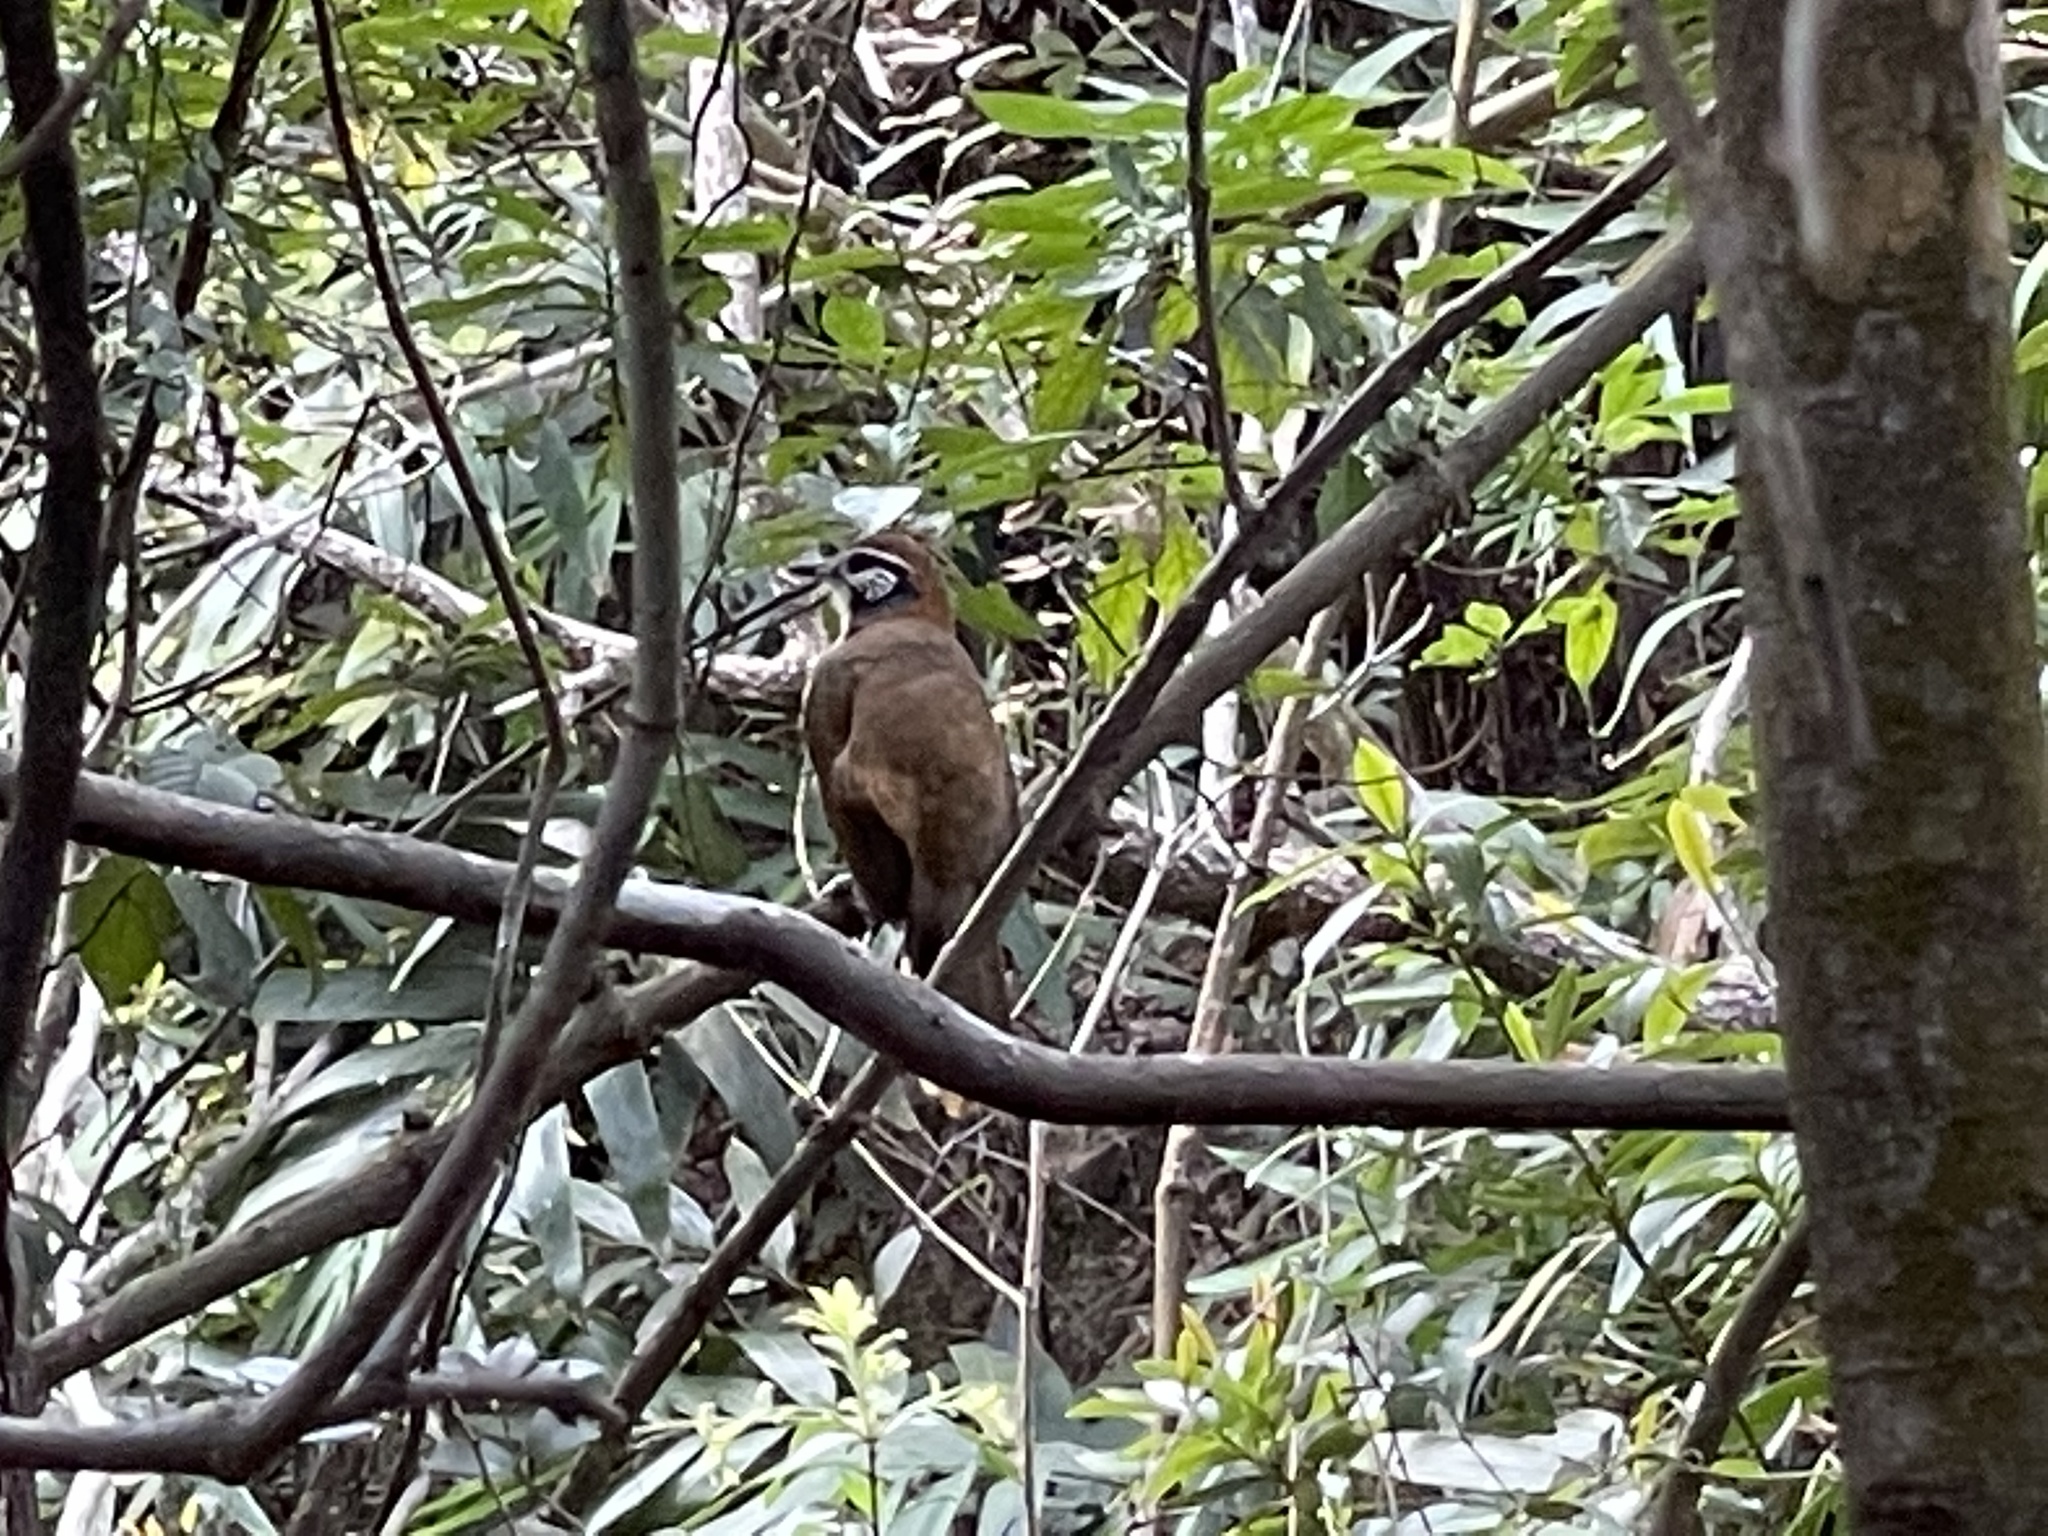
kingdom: Animalia
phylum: Chordata
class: Aves
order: Passeriformes
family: Leiothrichidae
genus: Garrulax
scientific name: Garrulax pectoralis
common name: Greater necklaced laughingthrush
